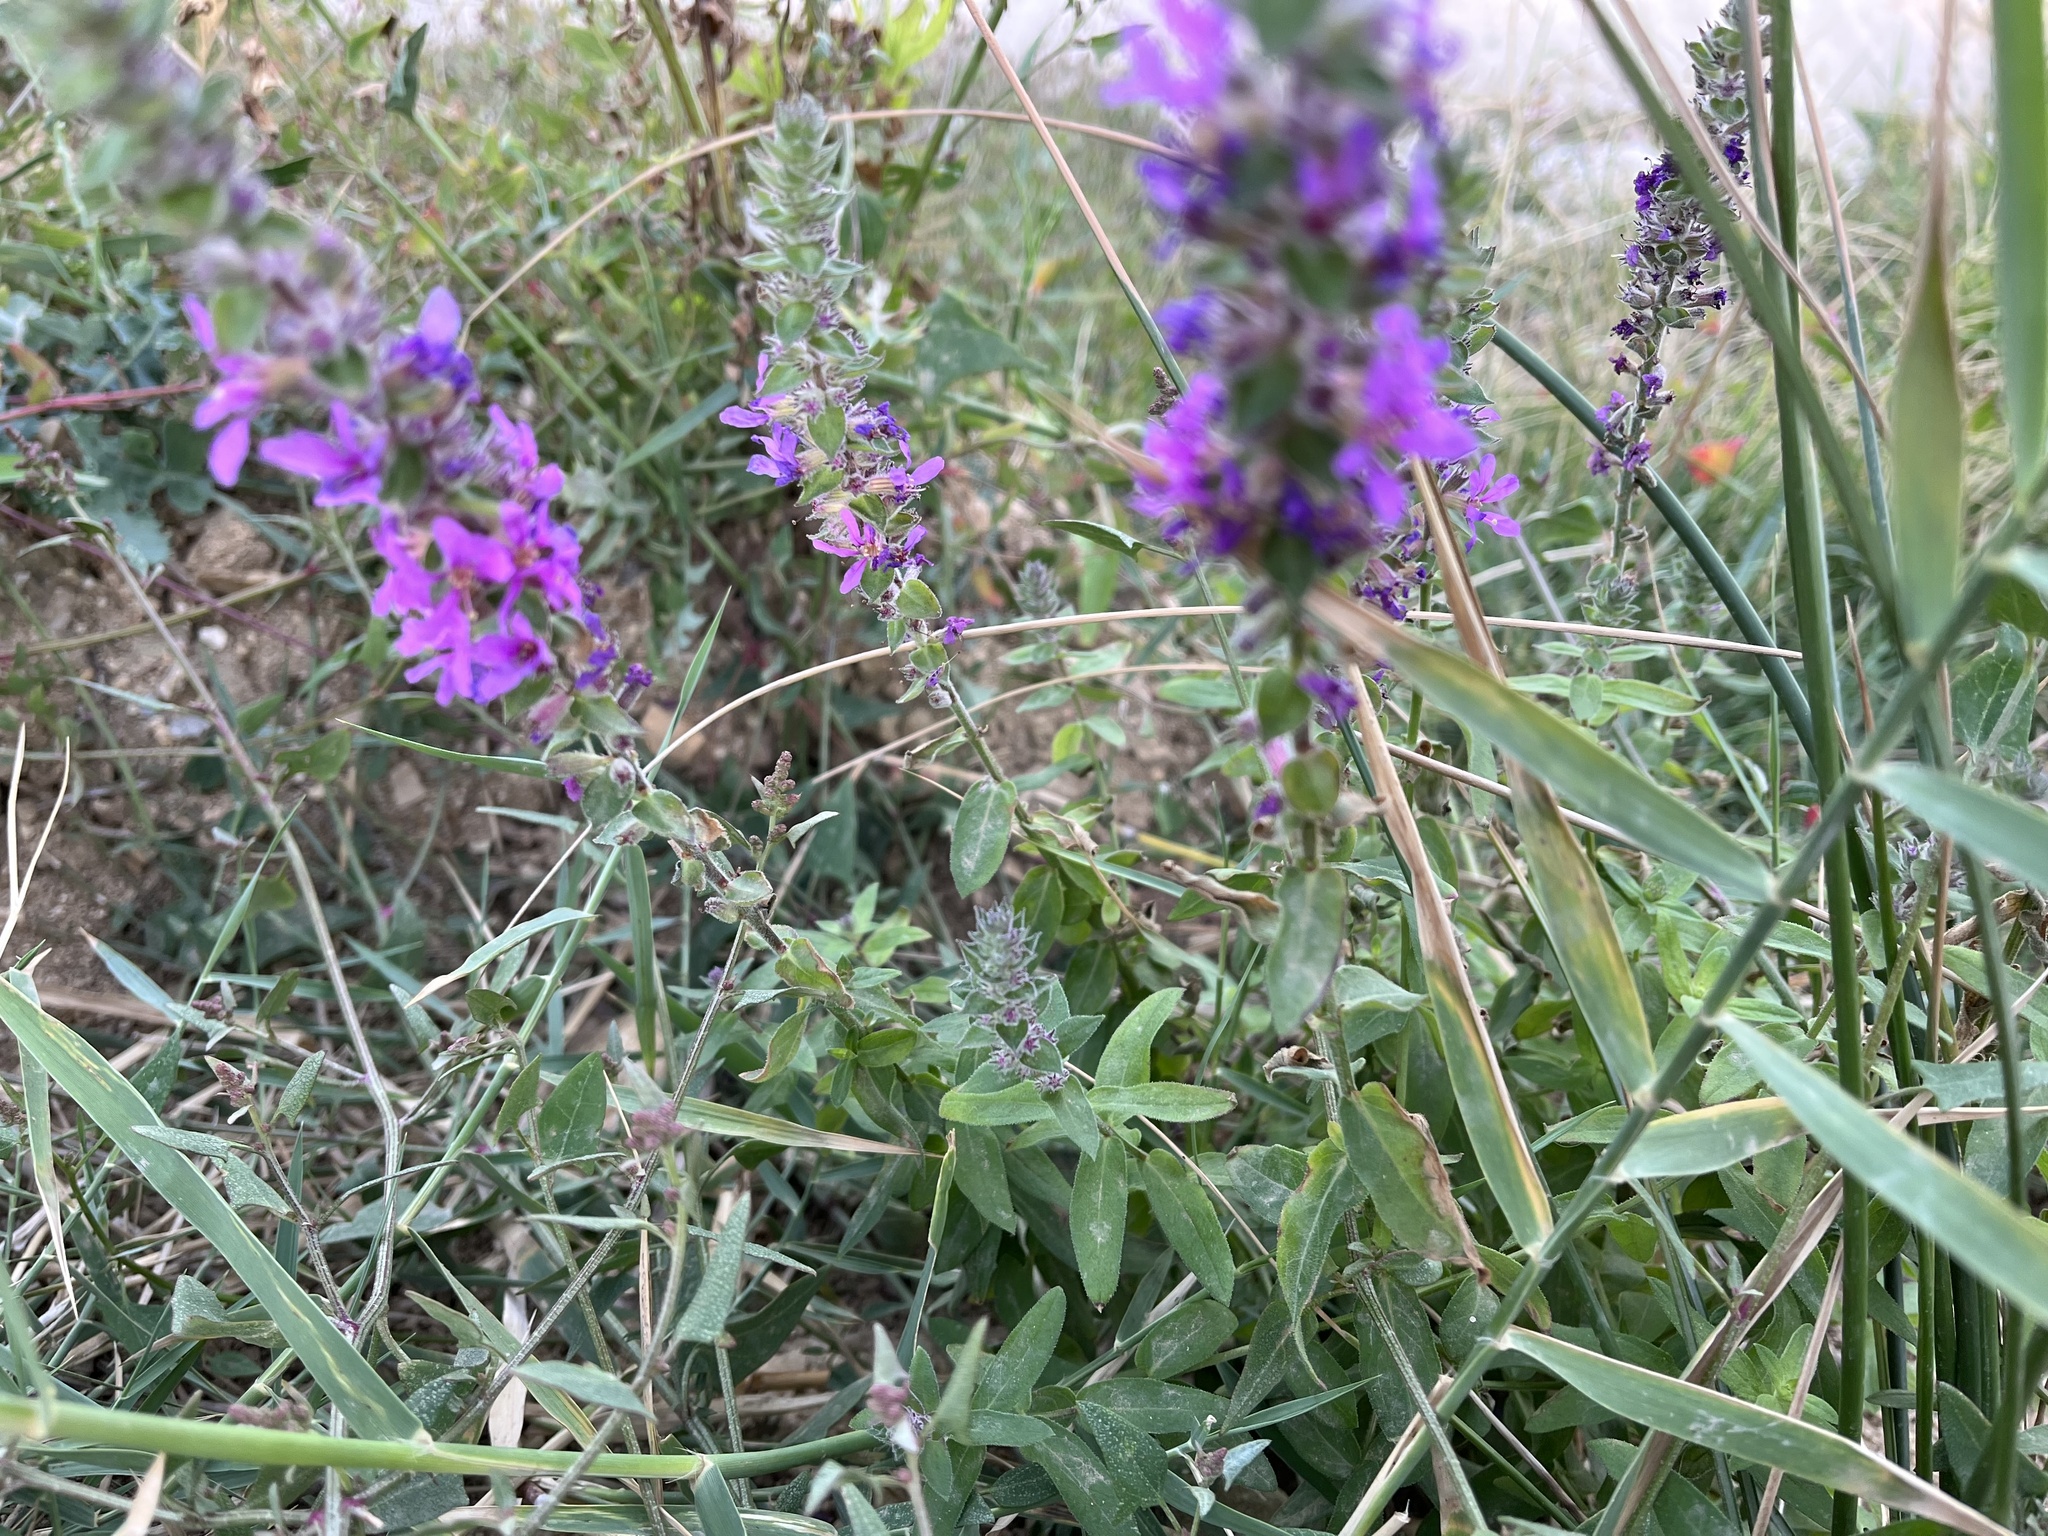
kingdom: Plantae
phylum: Tracheophyta
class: Magnoliopsida
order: Myrtales
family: Lythraceae
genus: Lythrum
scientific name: Lythrum salicaria
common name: Purple loosestrife
